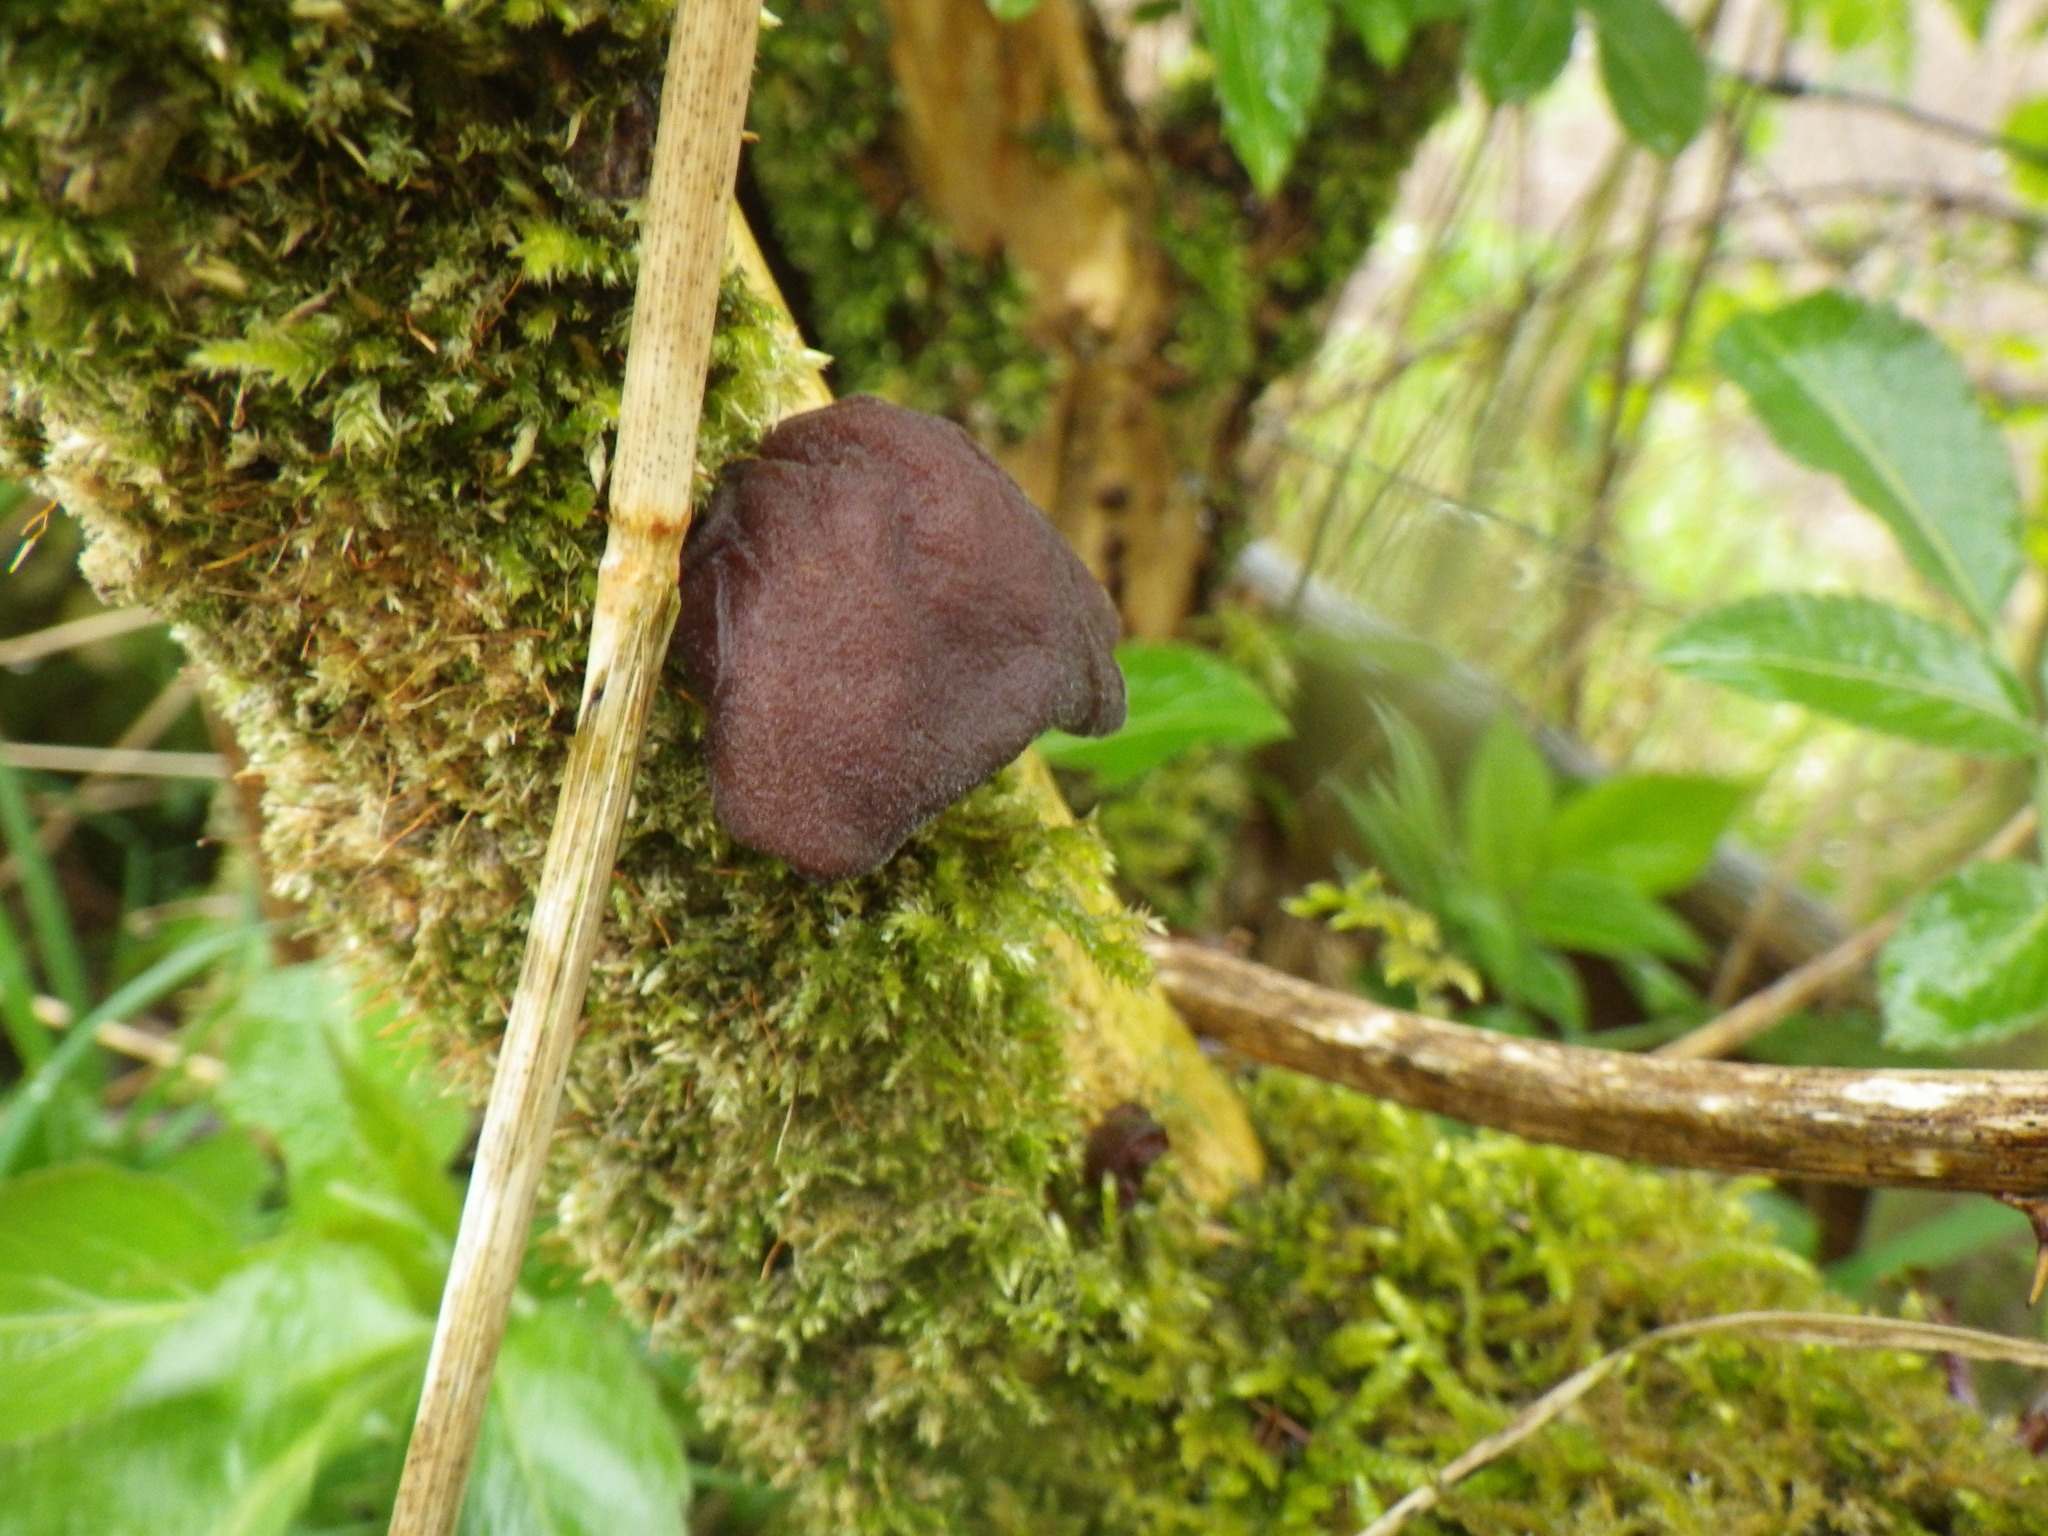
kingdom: Fungi
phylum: Basidiomycota
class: Agaricomycetes
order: Auriculariales
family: Auriculariaceae
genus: Auricularia
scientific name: Auricularia auricula-judae
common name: Jelly ear
